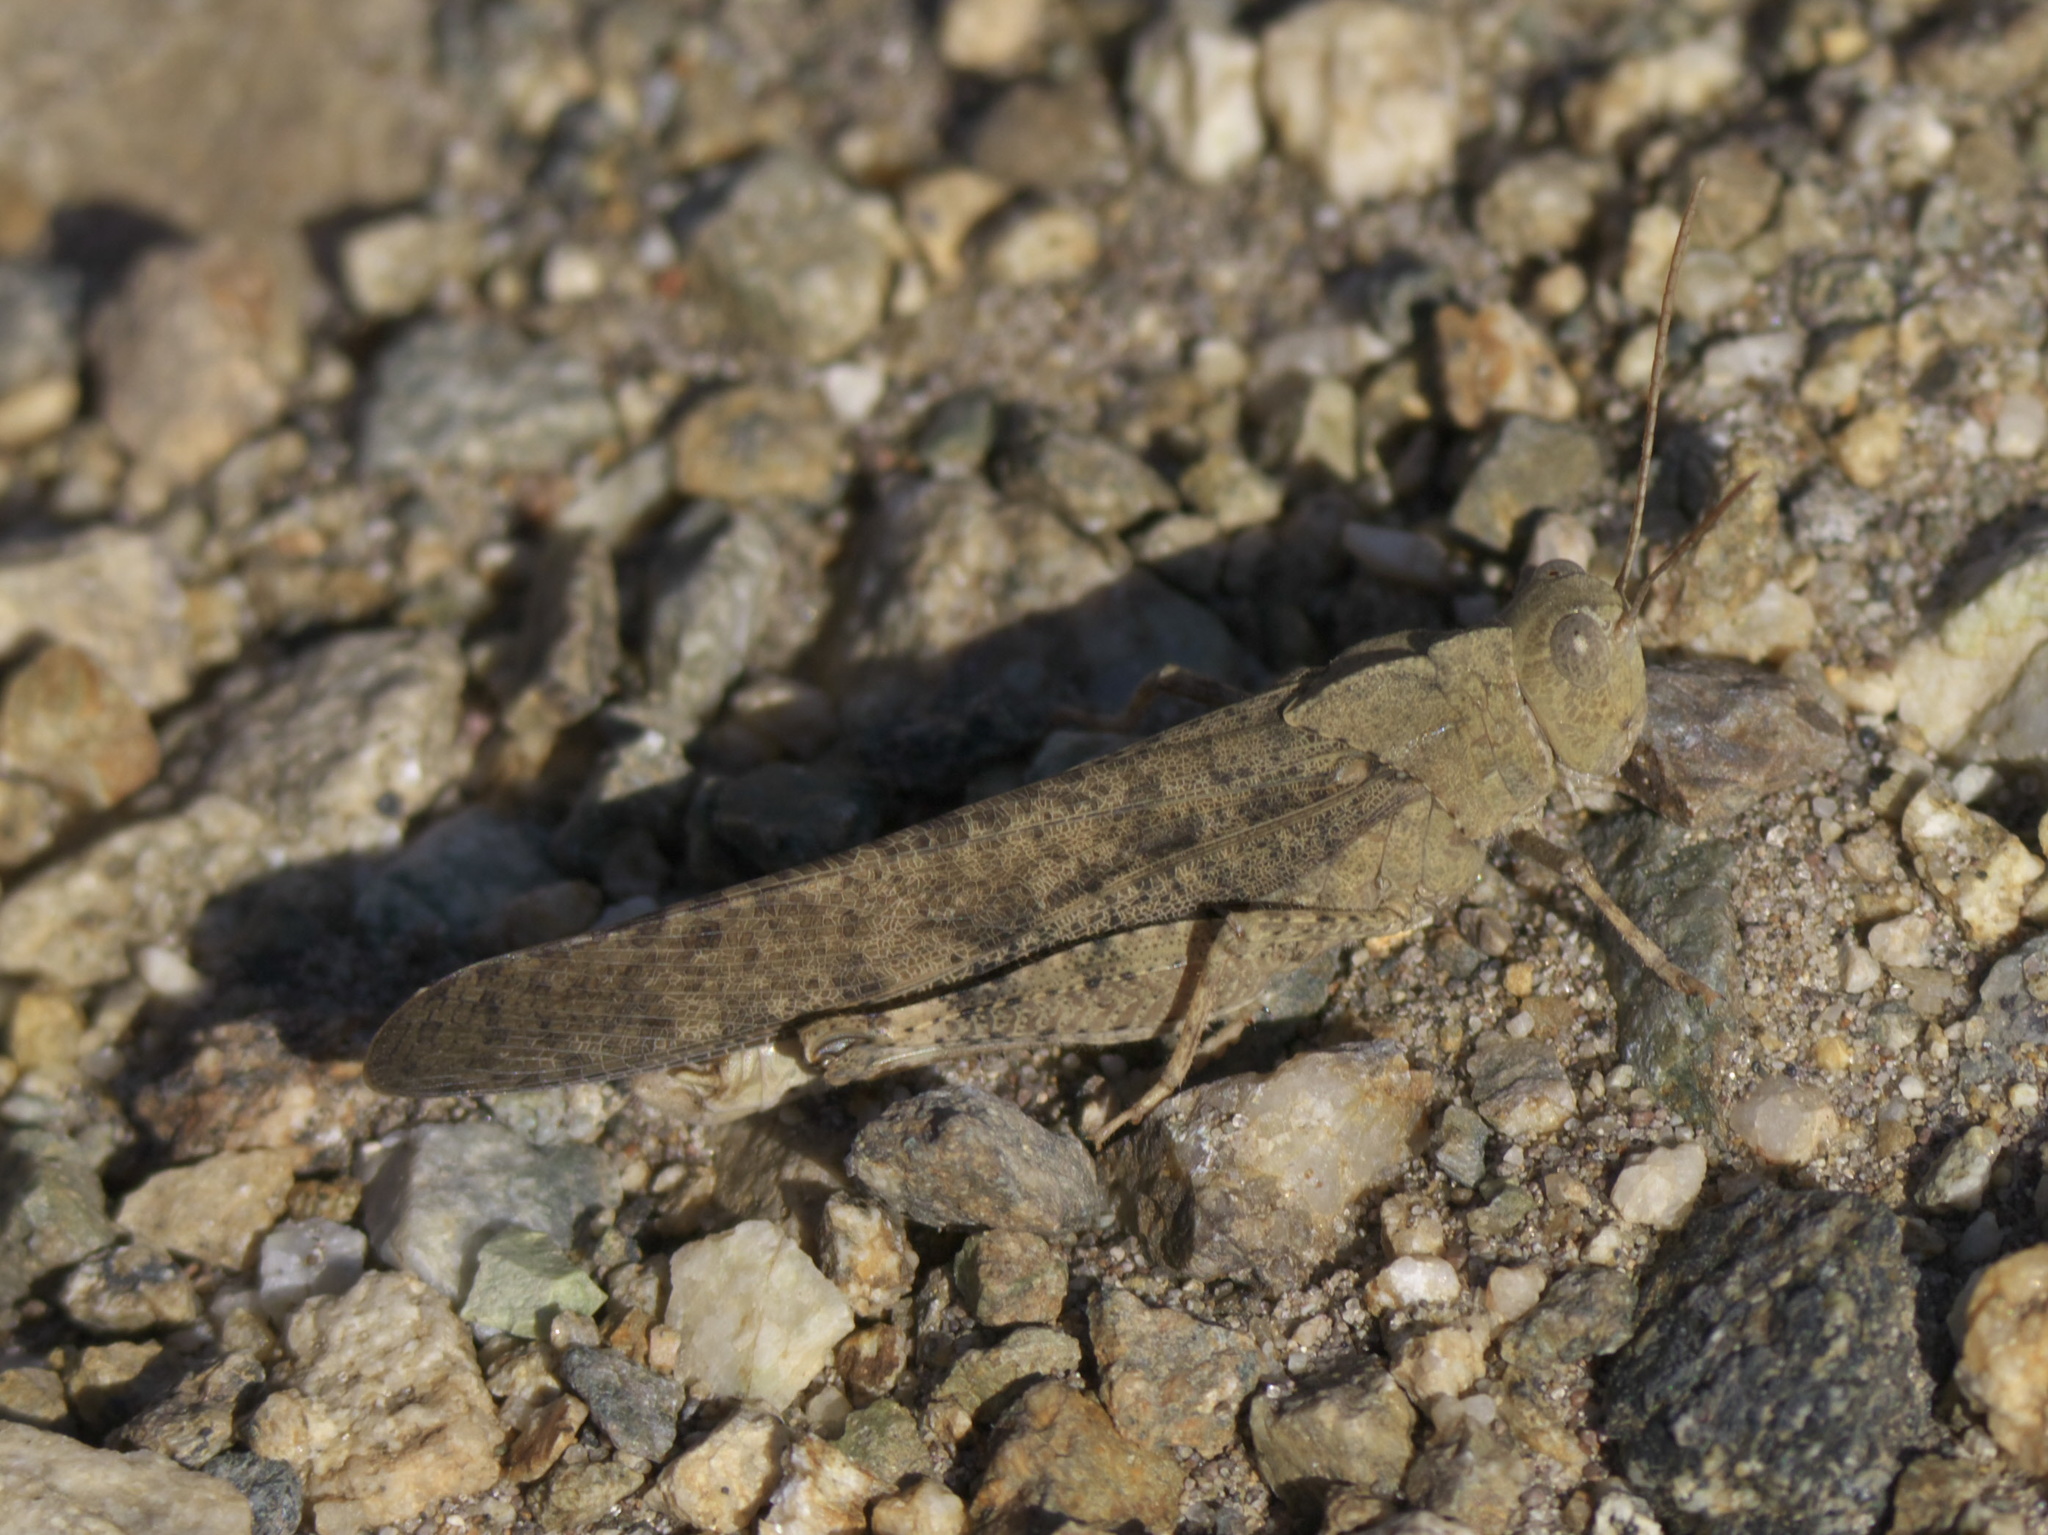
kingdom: Animalia
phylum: Arthropoda
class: Insecta
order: Orthoptera
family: Acrididae
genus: Dissosteira
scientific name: Dissosteira carolina
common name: Carolina grasshopper
